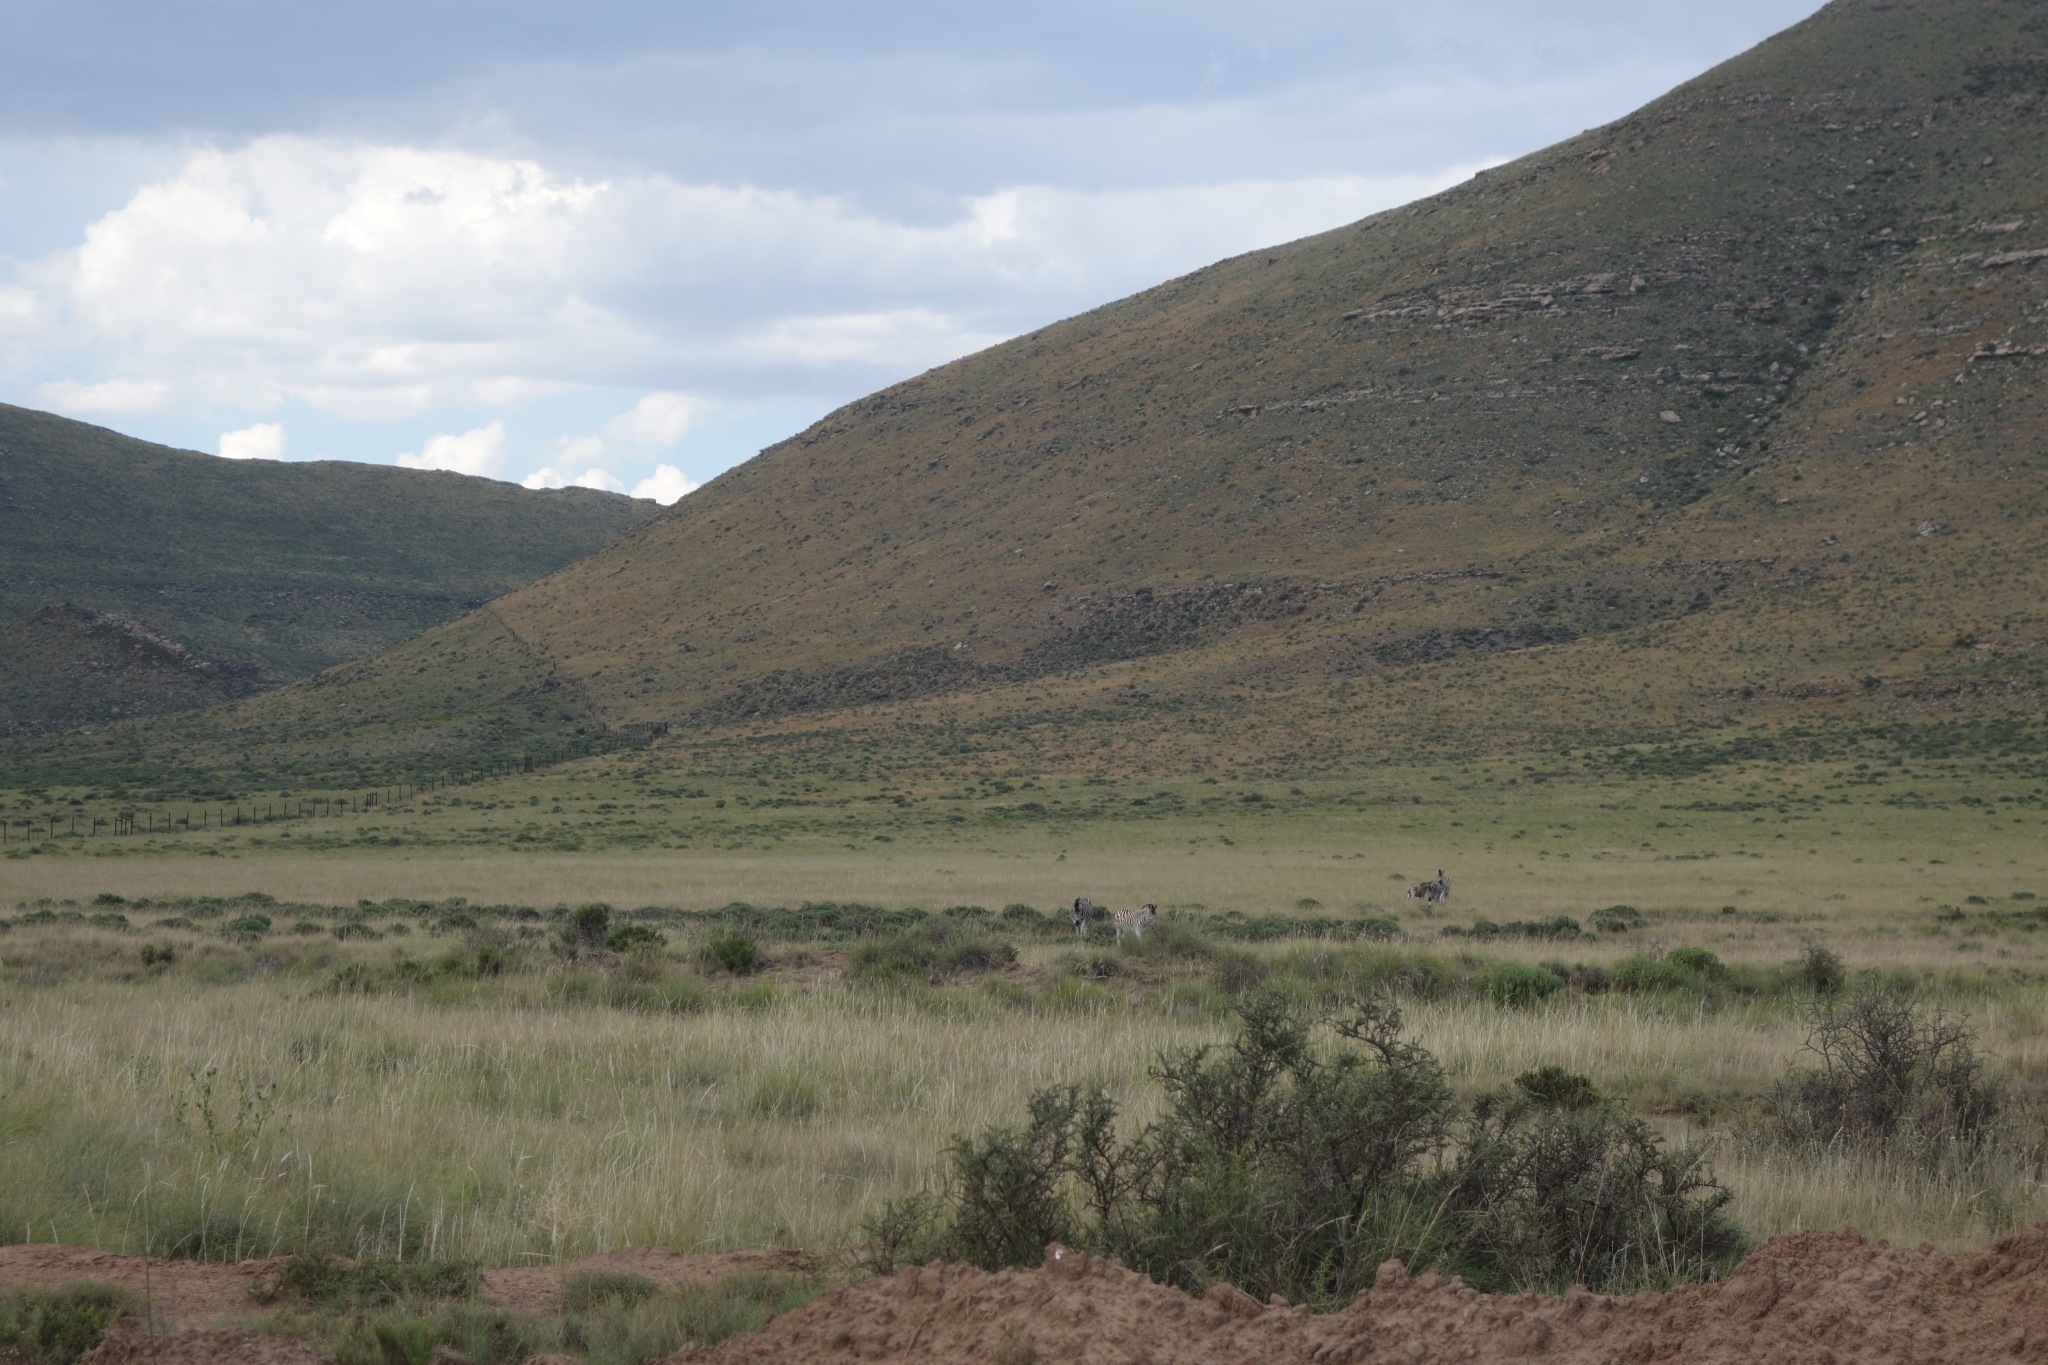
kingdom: Animalia
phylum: Chordata
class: Mammalia
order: Perissodactyla
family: Equidae
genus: Equus
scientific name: Equus quagga
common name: Plains zebra
